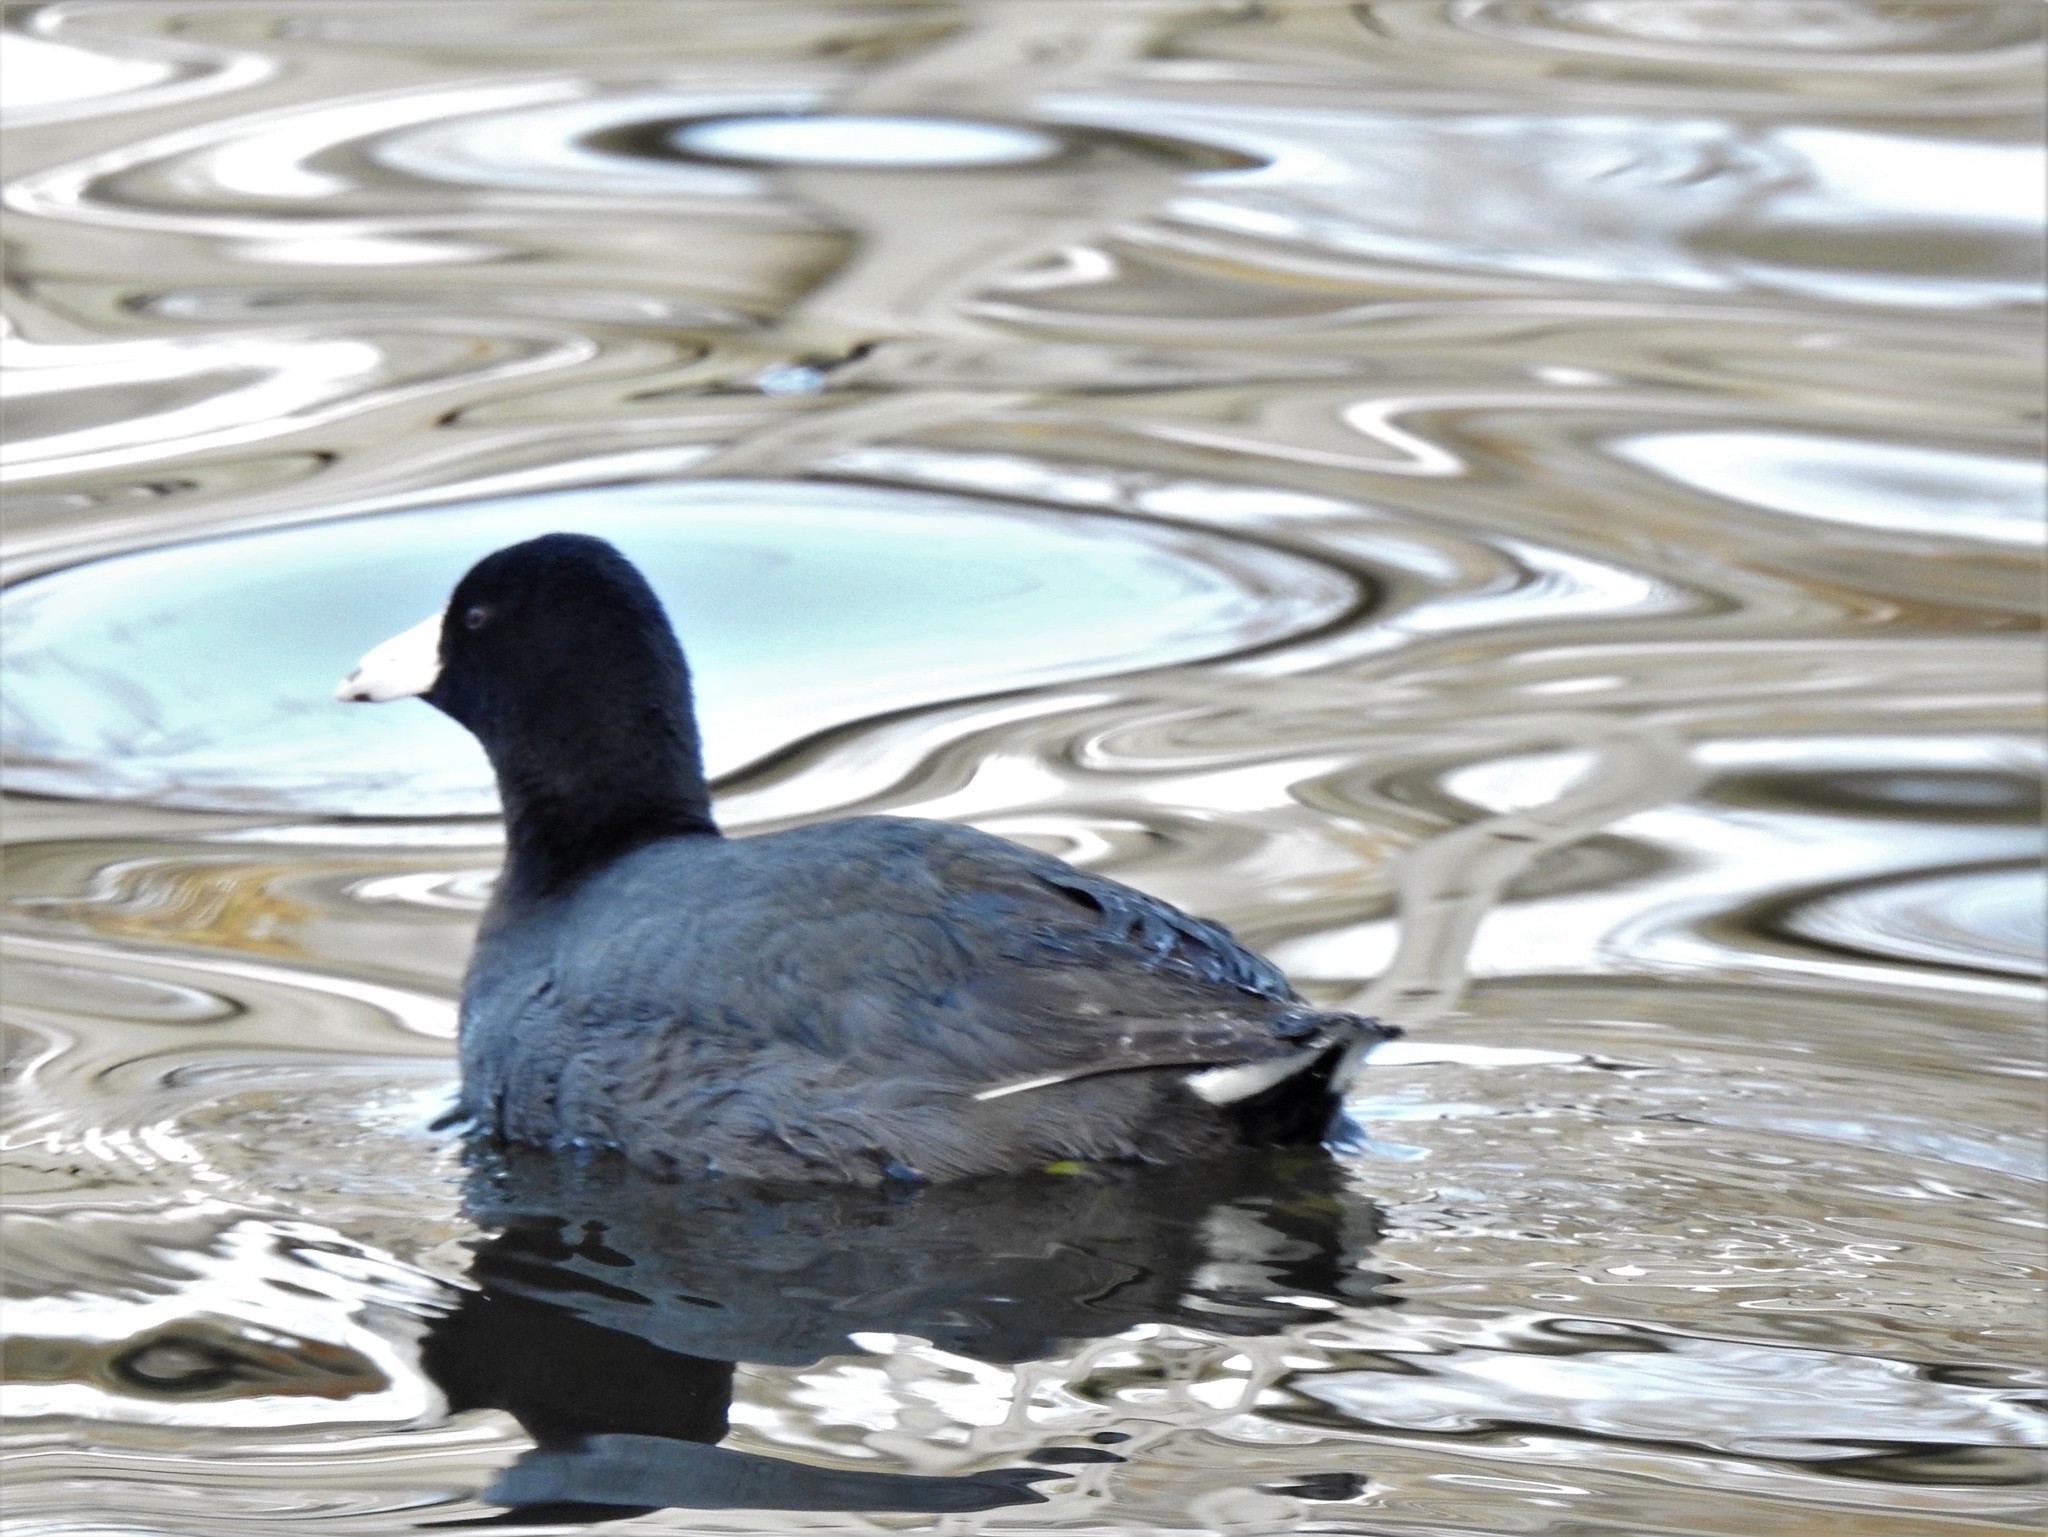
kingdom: Animalia
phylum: Chordata
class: Aves
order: Gruiformes
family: Rallidae
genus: Fulica
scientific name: Fulica americana
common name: American coot
